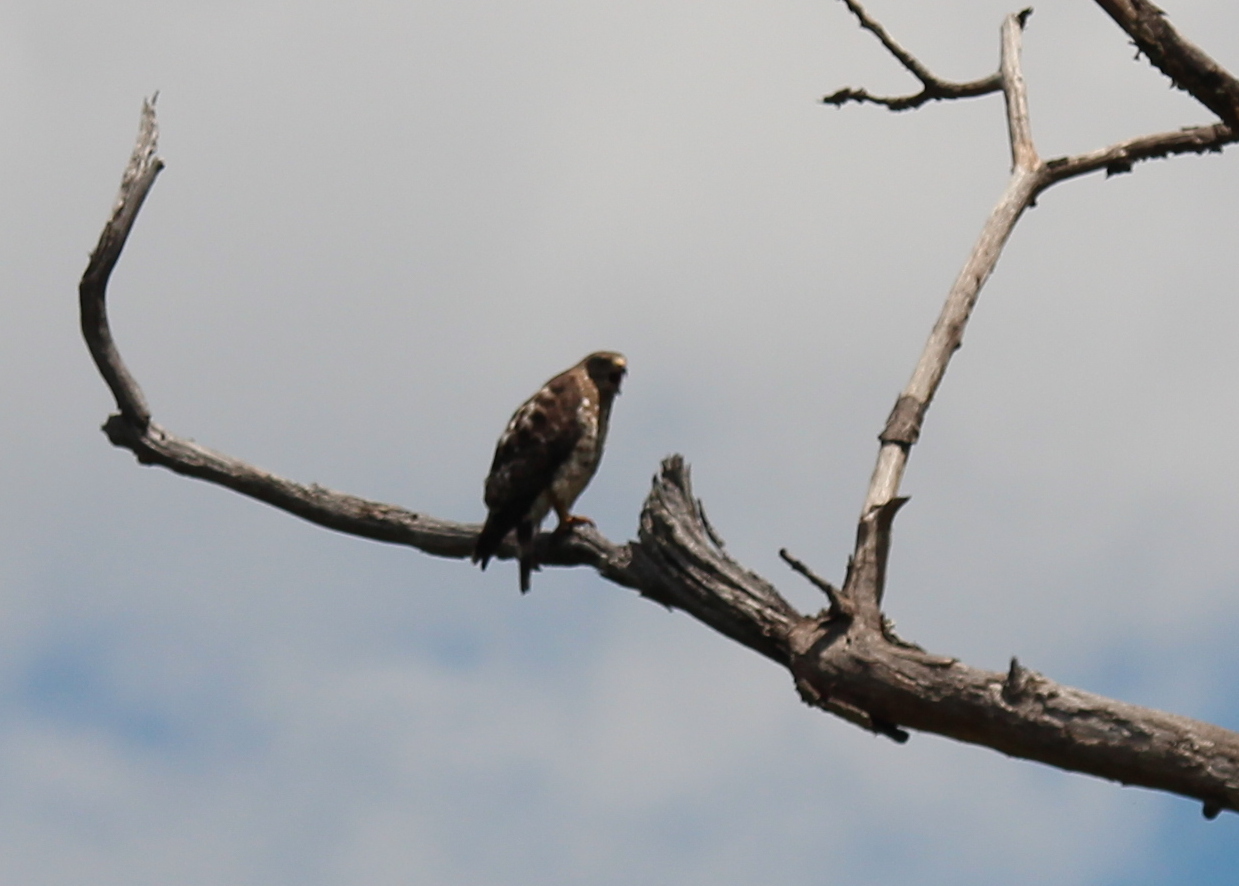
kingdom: Animalia
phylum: Chordata
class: Aves
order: Accipitriformes
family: Accipitridae
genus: Buteo
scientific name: Buteo platypterus
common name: Broad-winged hawk
